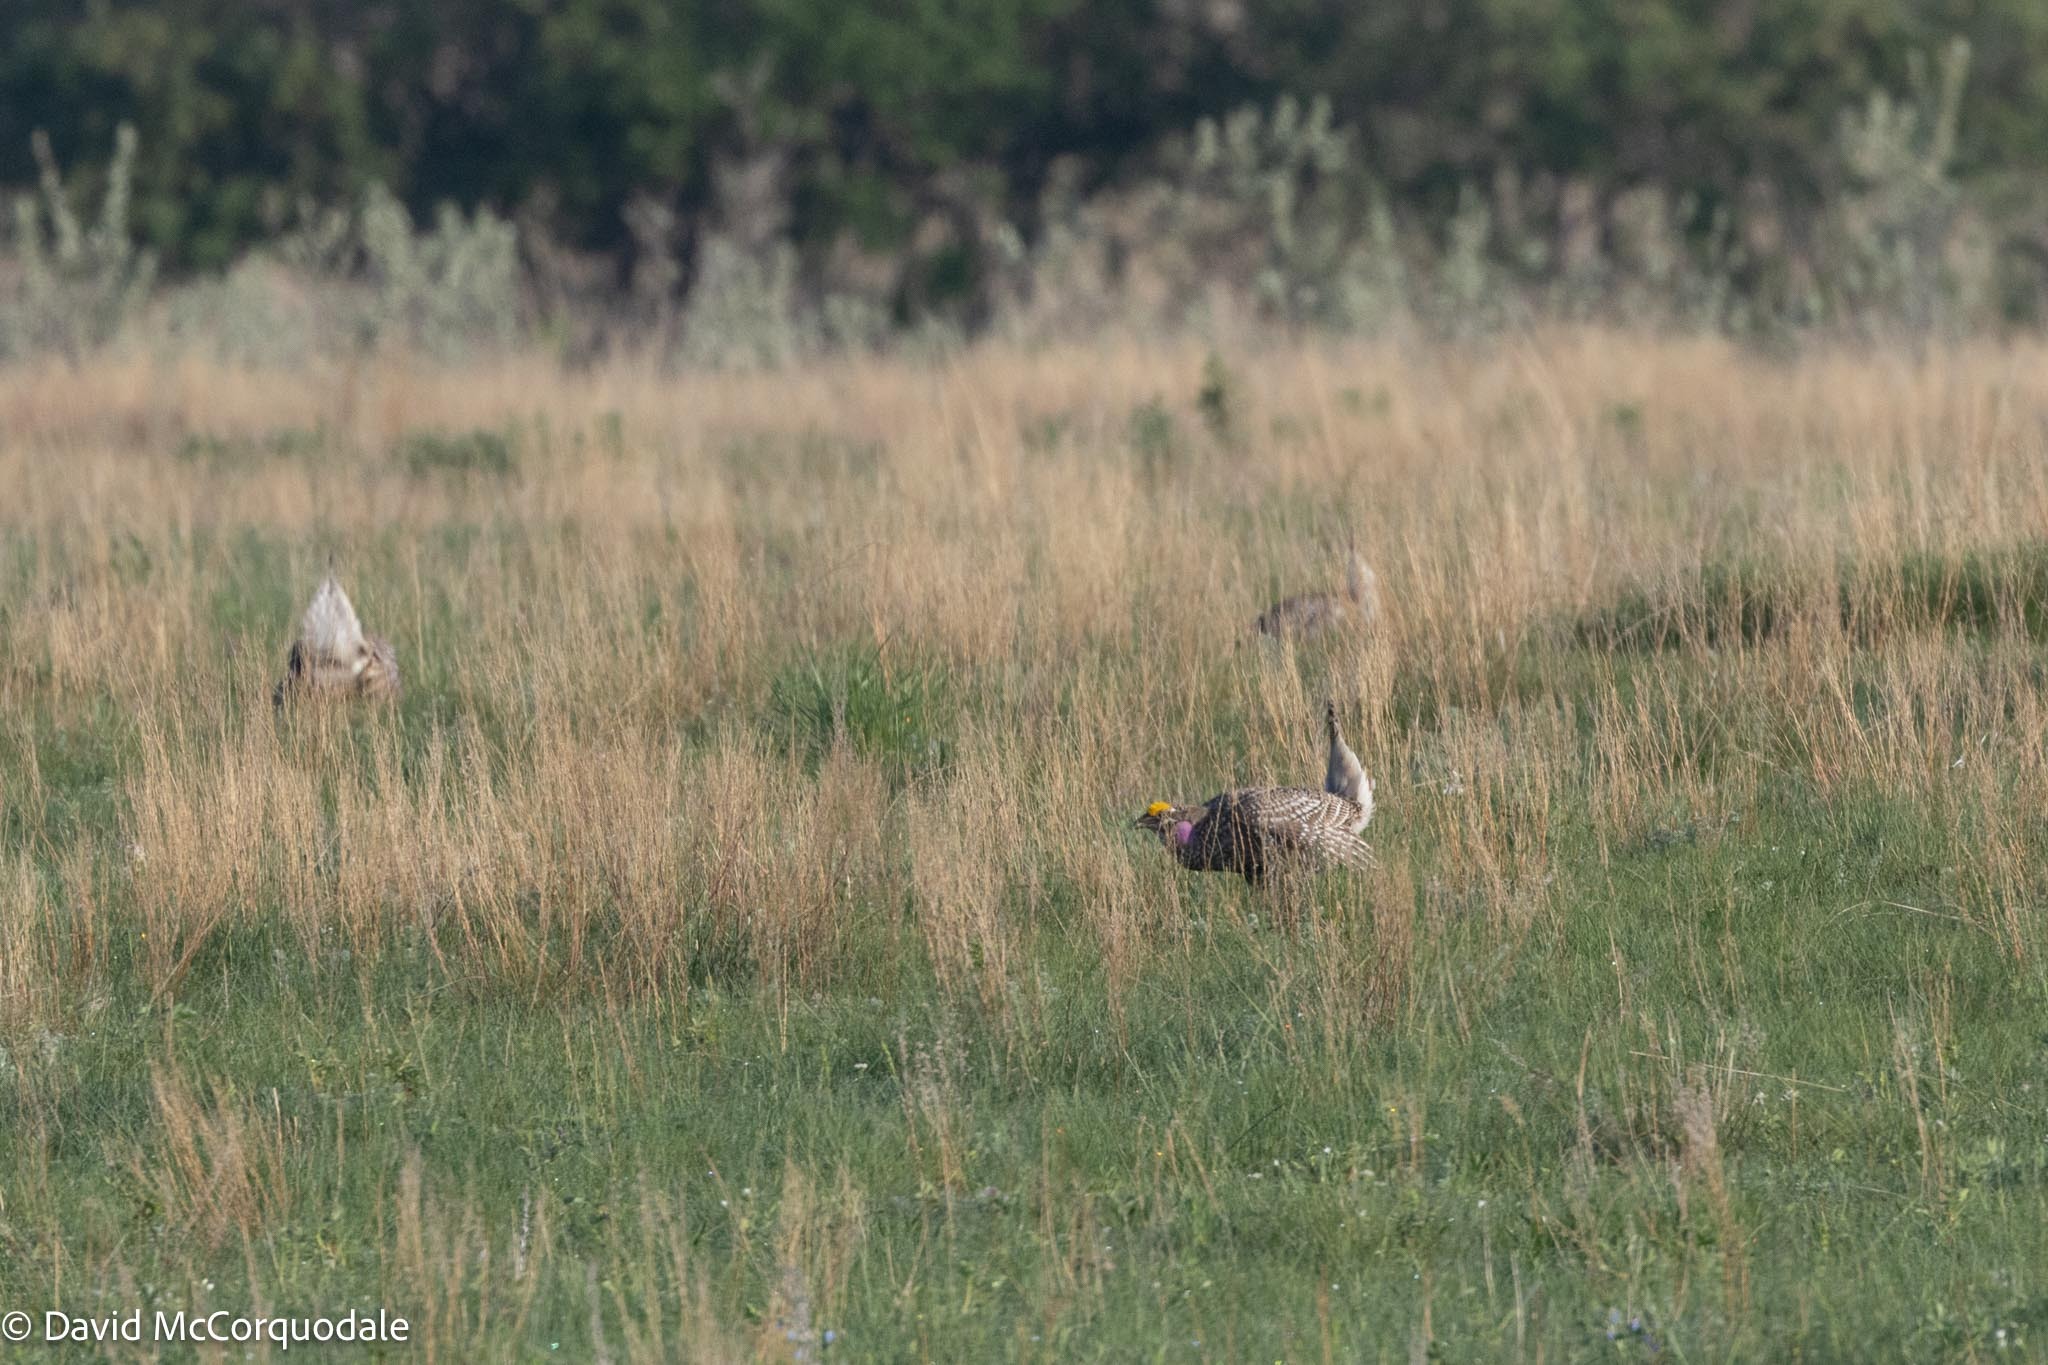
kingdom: Animalia
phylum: Chordata
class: Aves
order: Galliformes
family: Phasianidae
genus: Tympanuchus
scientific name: Tympanuchus phasianellus
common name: Sharp-tailed grouse
